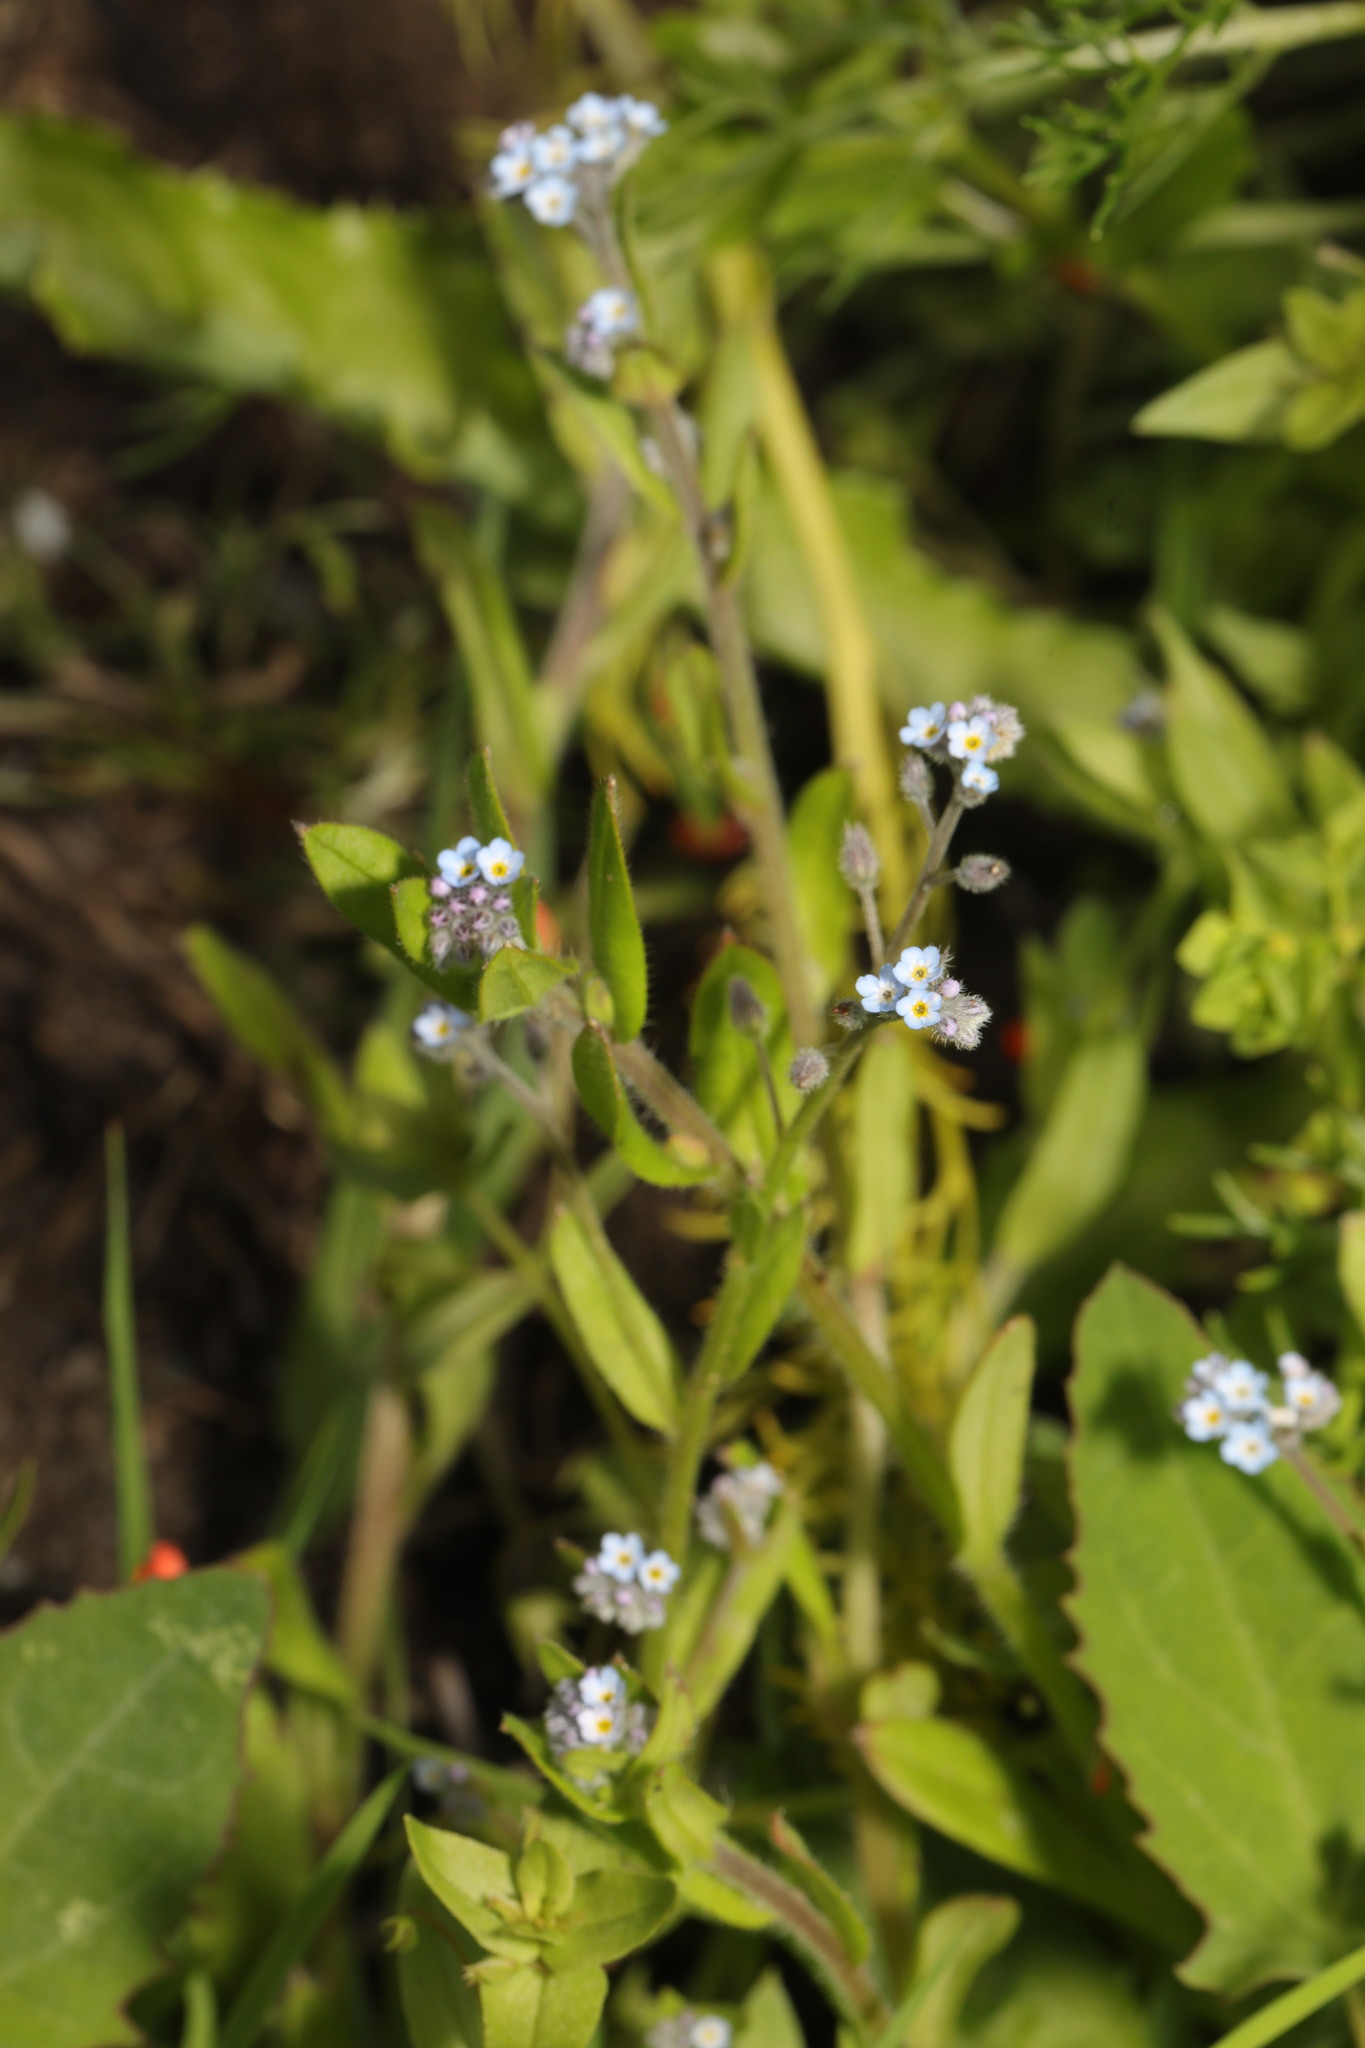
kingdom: Plantae
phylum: Tracheophyta
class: Magnoliopsida
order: Boraginales
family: Boraginaceae
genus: Myosotis
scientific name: Myosotis arvensis
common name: Field forget-me-not
